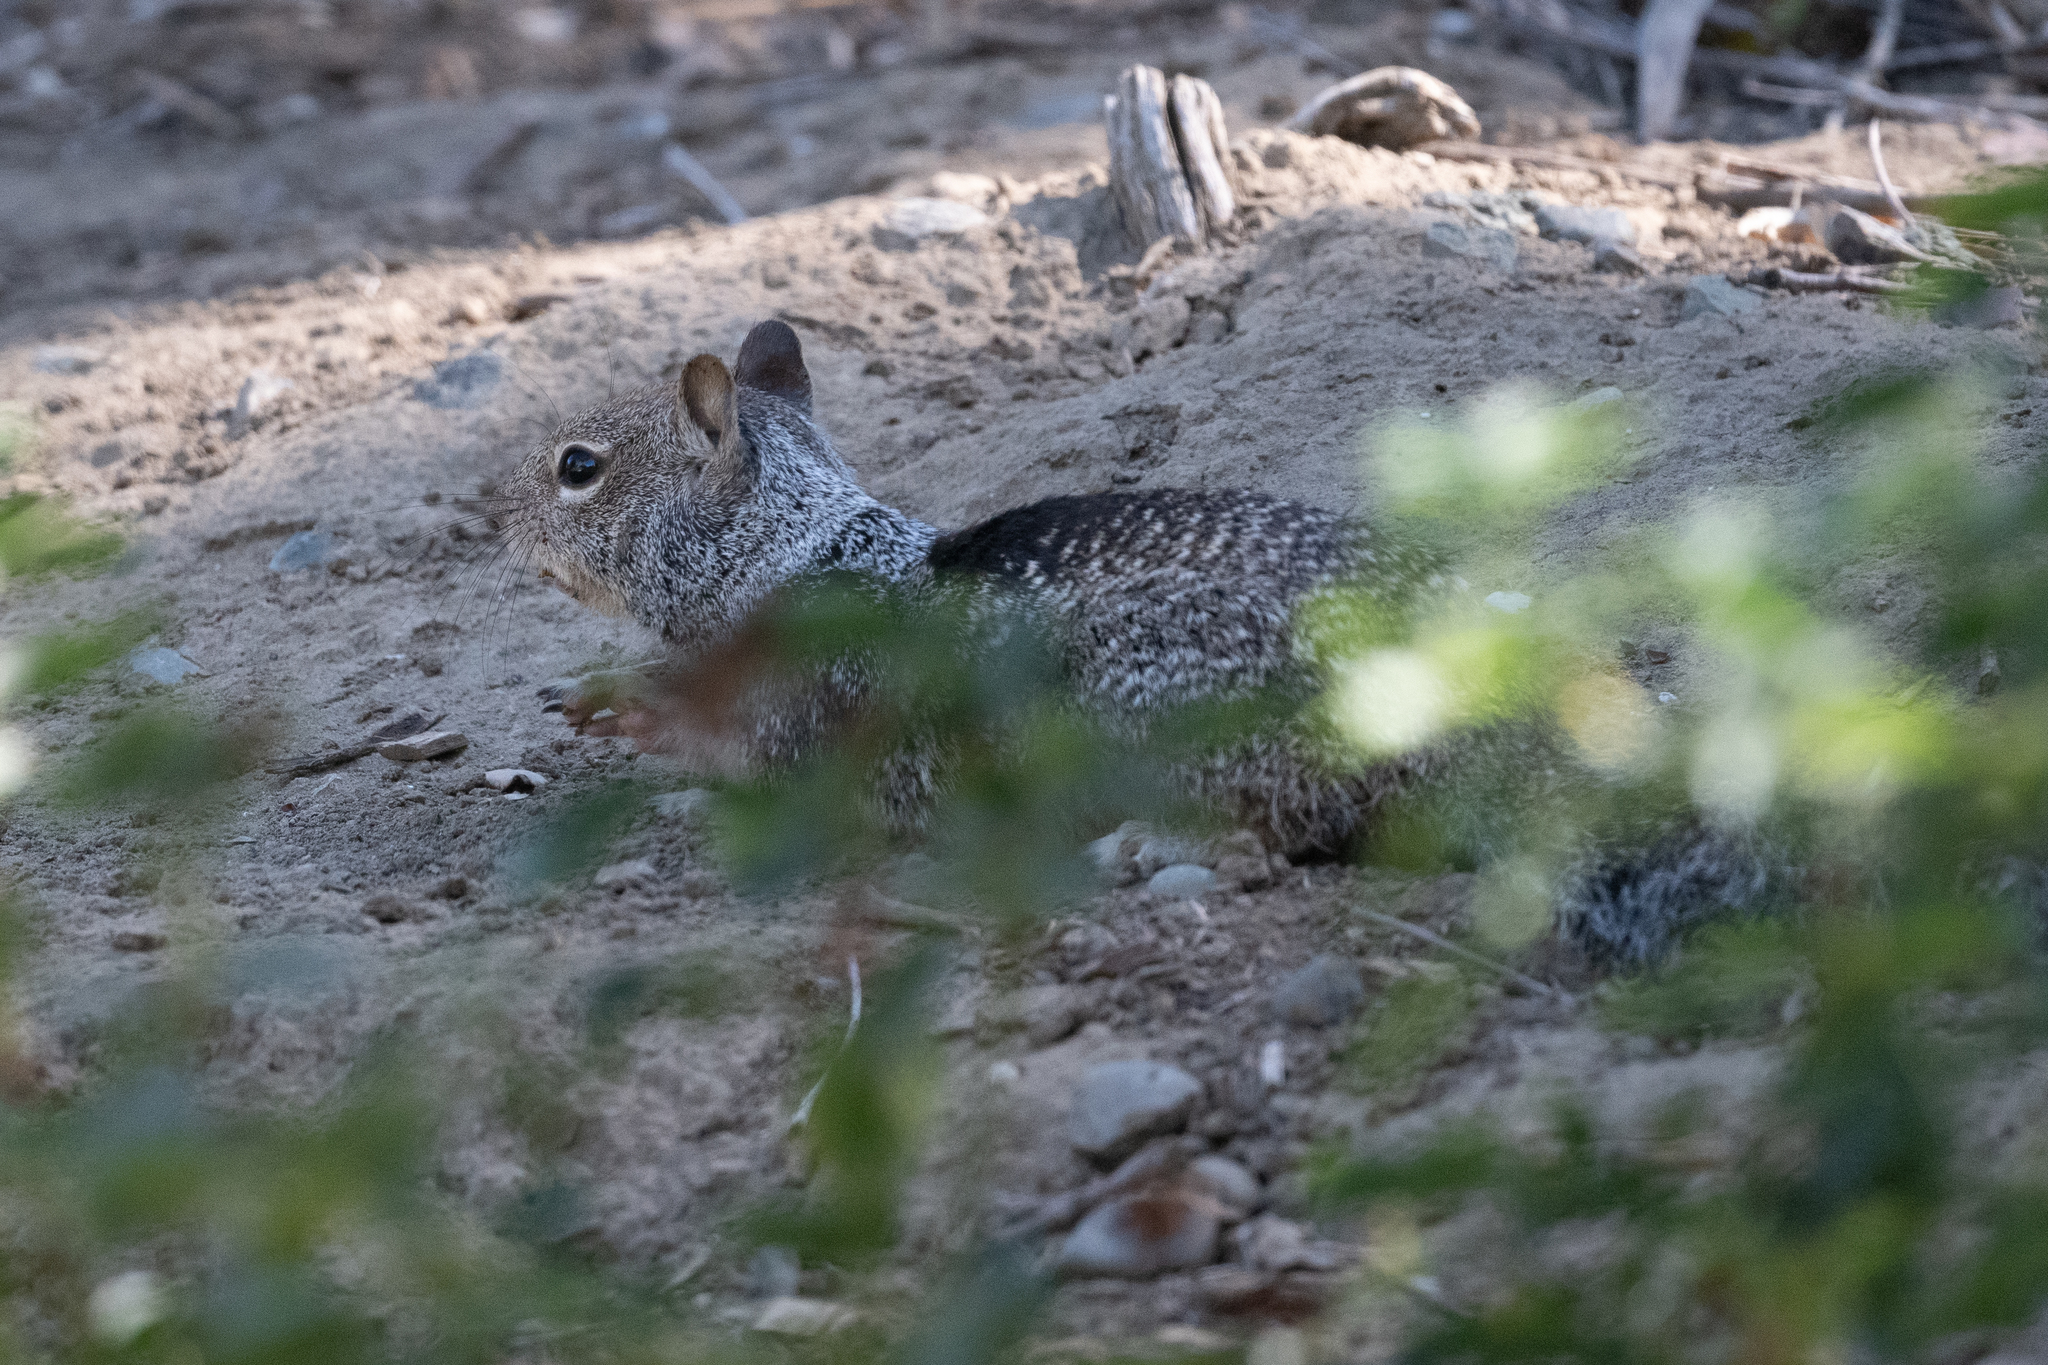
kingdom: Animalia
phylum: Chordata
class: Mammalia
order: Rodentia
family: Sciuridae
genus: Otospermophilus
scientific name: Otospermophilus beecheyi
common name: California ground squirrel
